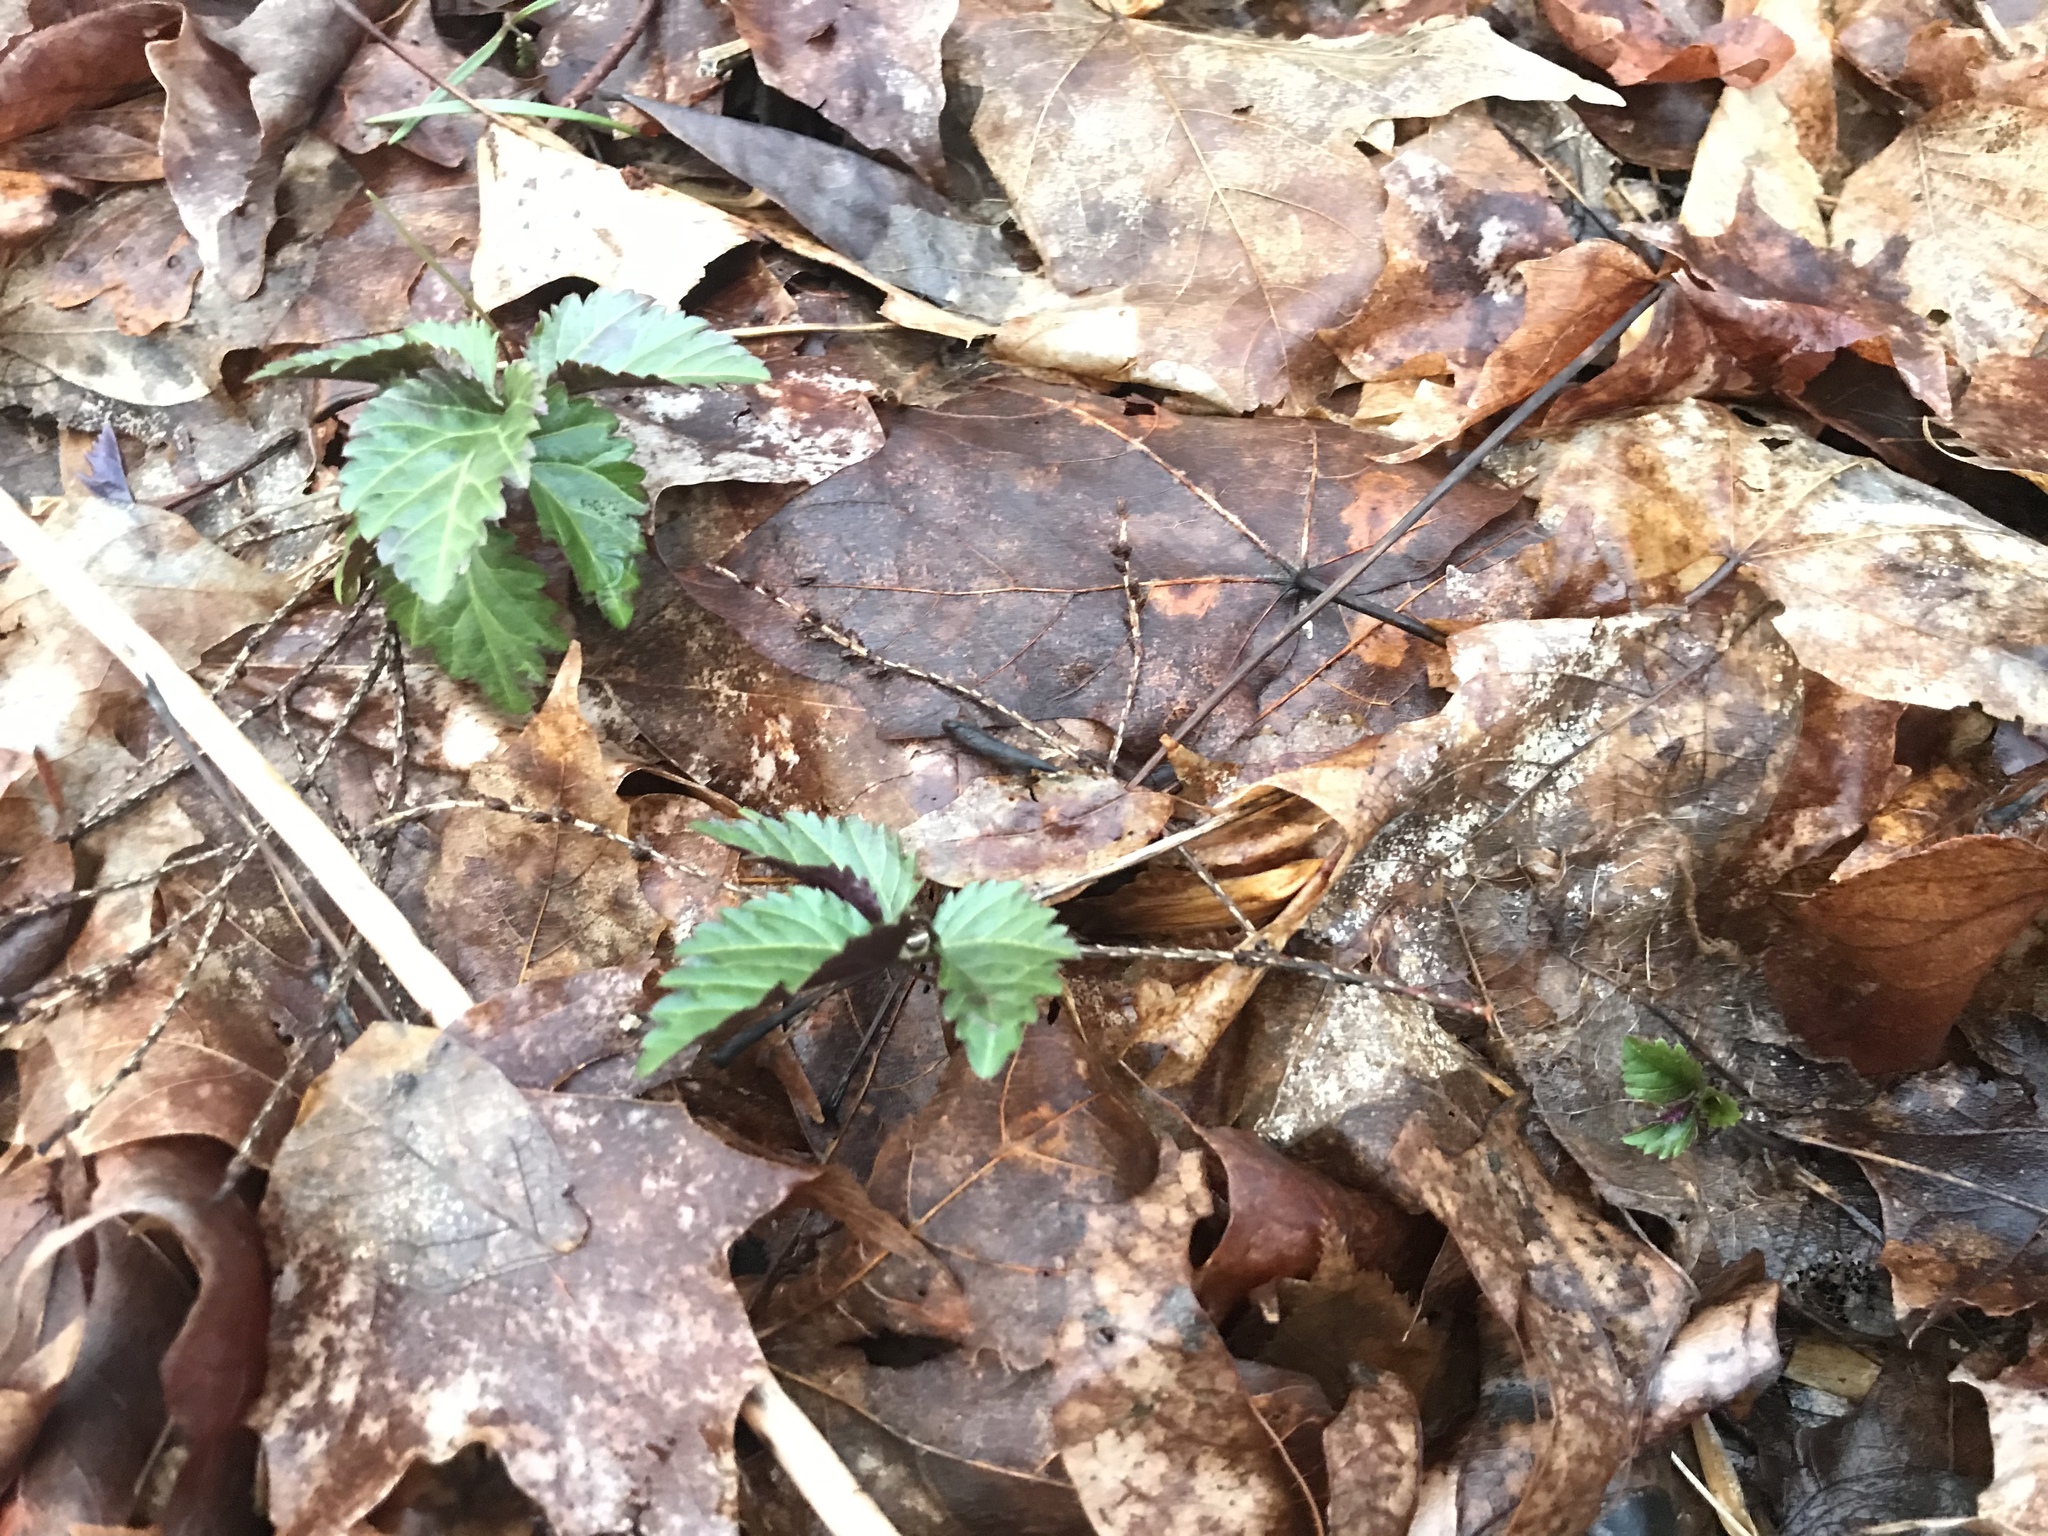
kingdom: Plantae
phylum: Tracheophyta
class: Magnoliopsida
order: Brassicales
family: Brassicaceae
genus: Cardamine
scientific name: Cardamine diphylla
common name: Broad-leaved toothwort
